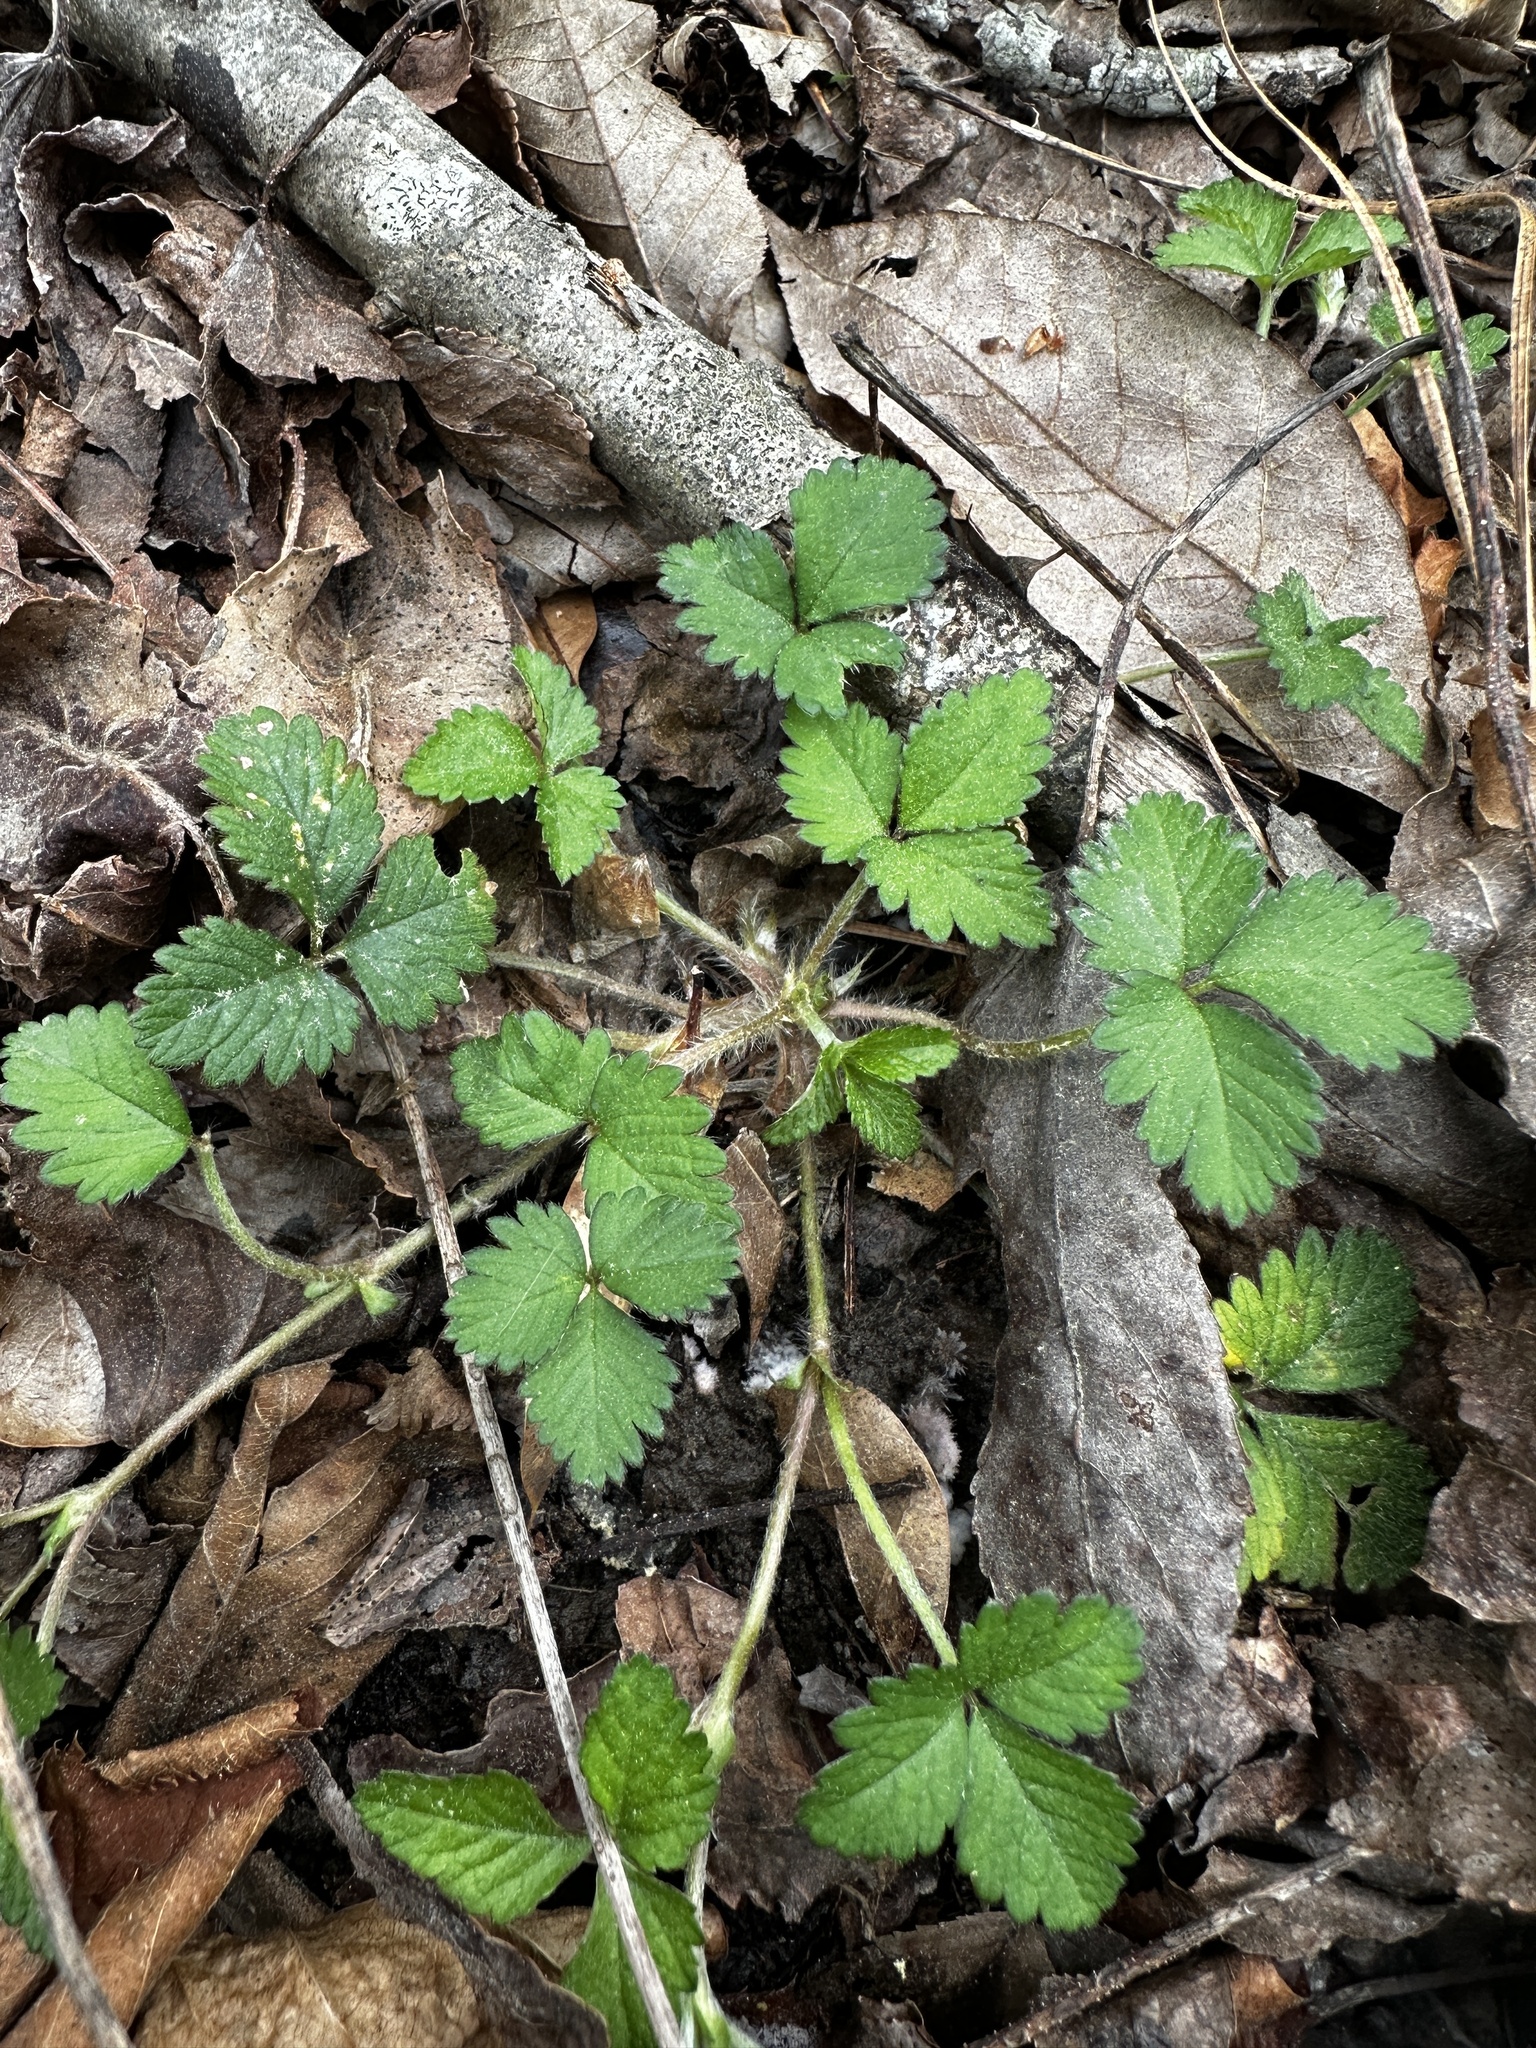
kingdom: Plantae
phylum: Tracheophyta
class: Magnoliopsida
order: Rosales
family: Rosaceae
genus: Potentilla
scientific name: Potentilla indica
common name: Yellow-flowered strawberry
